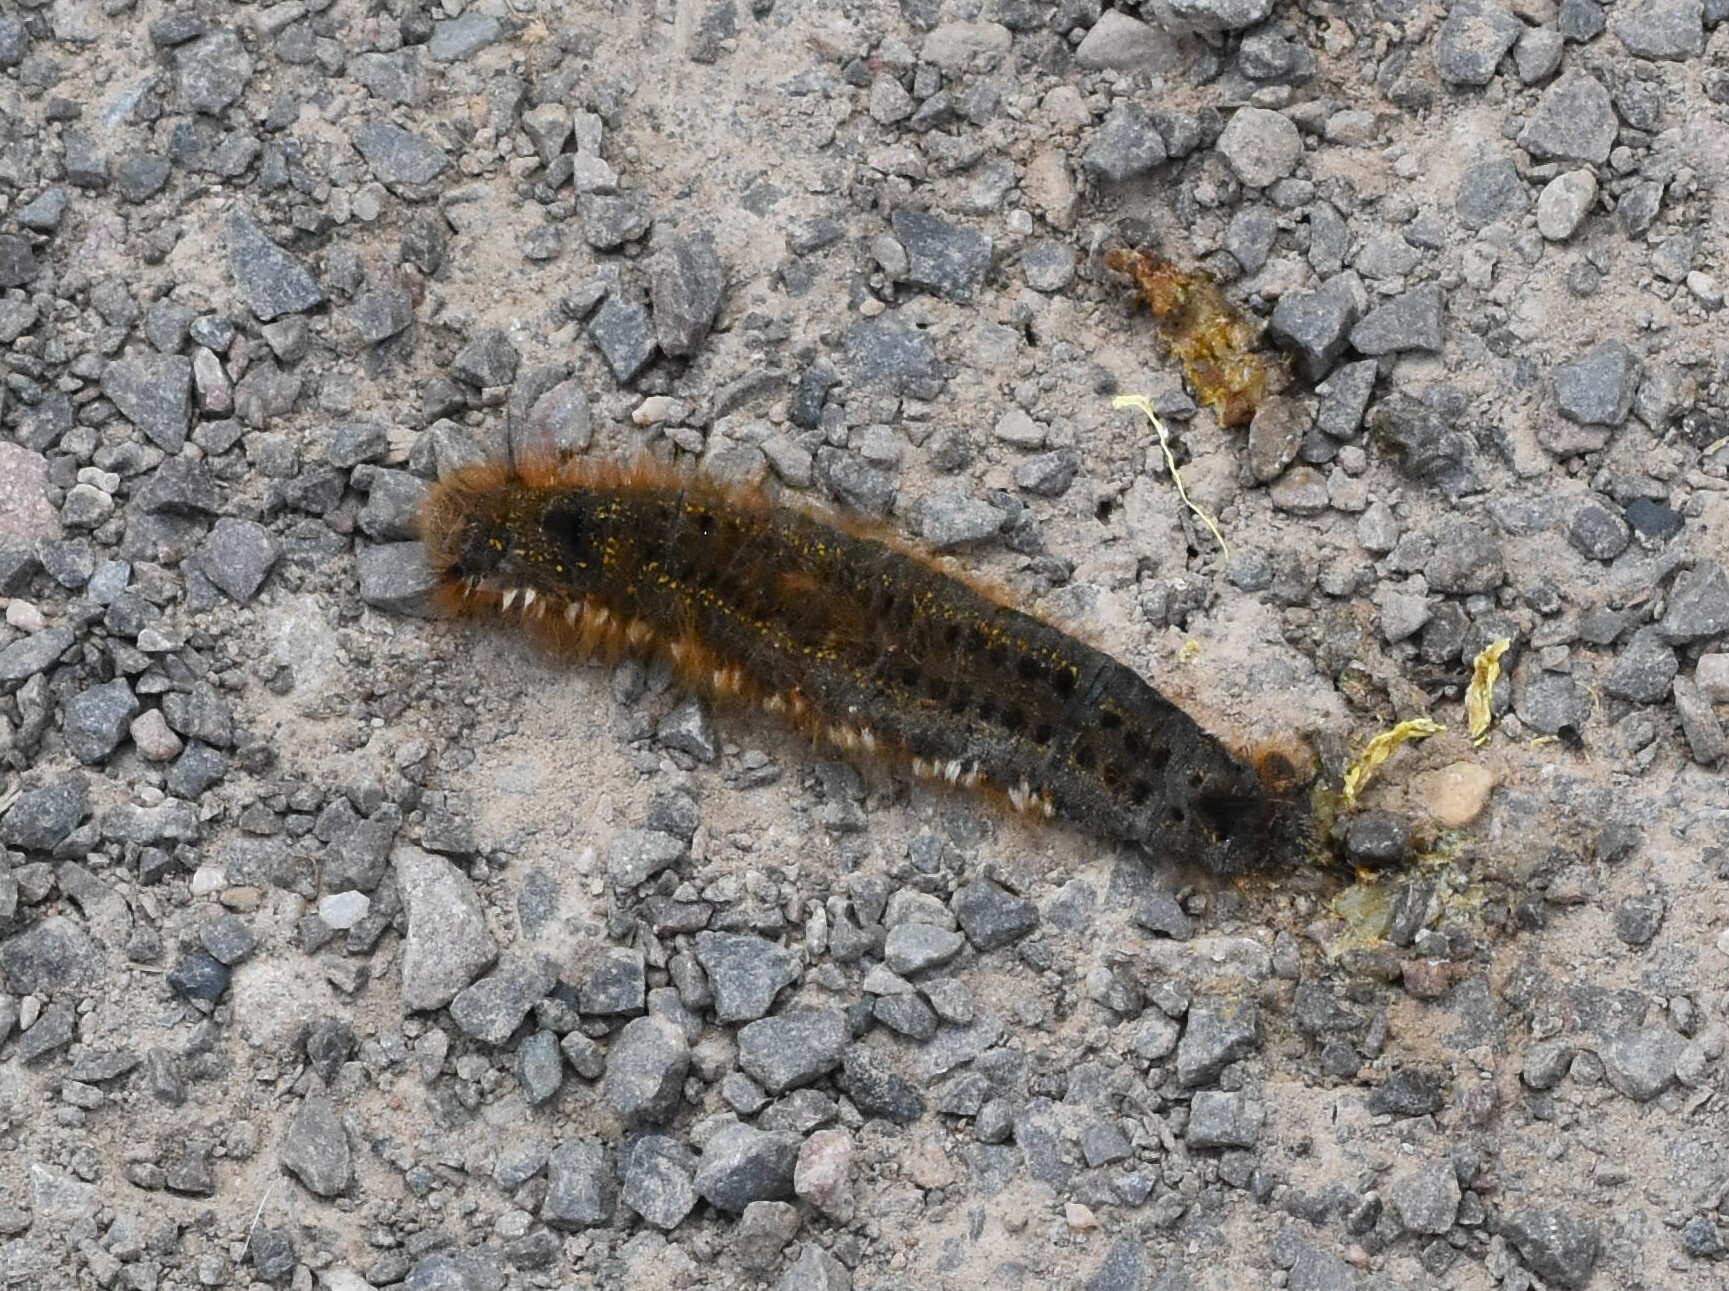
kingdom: Animalia
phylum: Arthropoda
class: Insecta
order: Lepidoptera
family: Lasiocampidae
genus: Euthrix
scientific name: Euthrix potatoria
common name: Drinker
